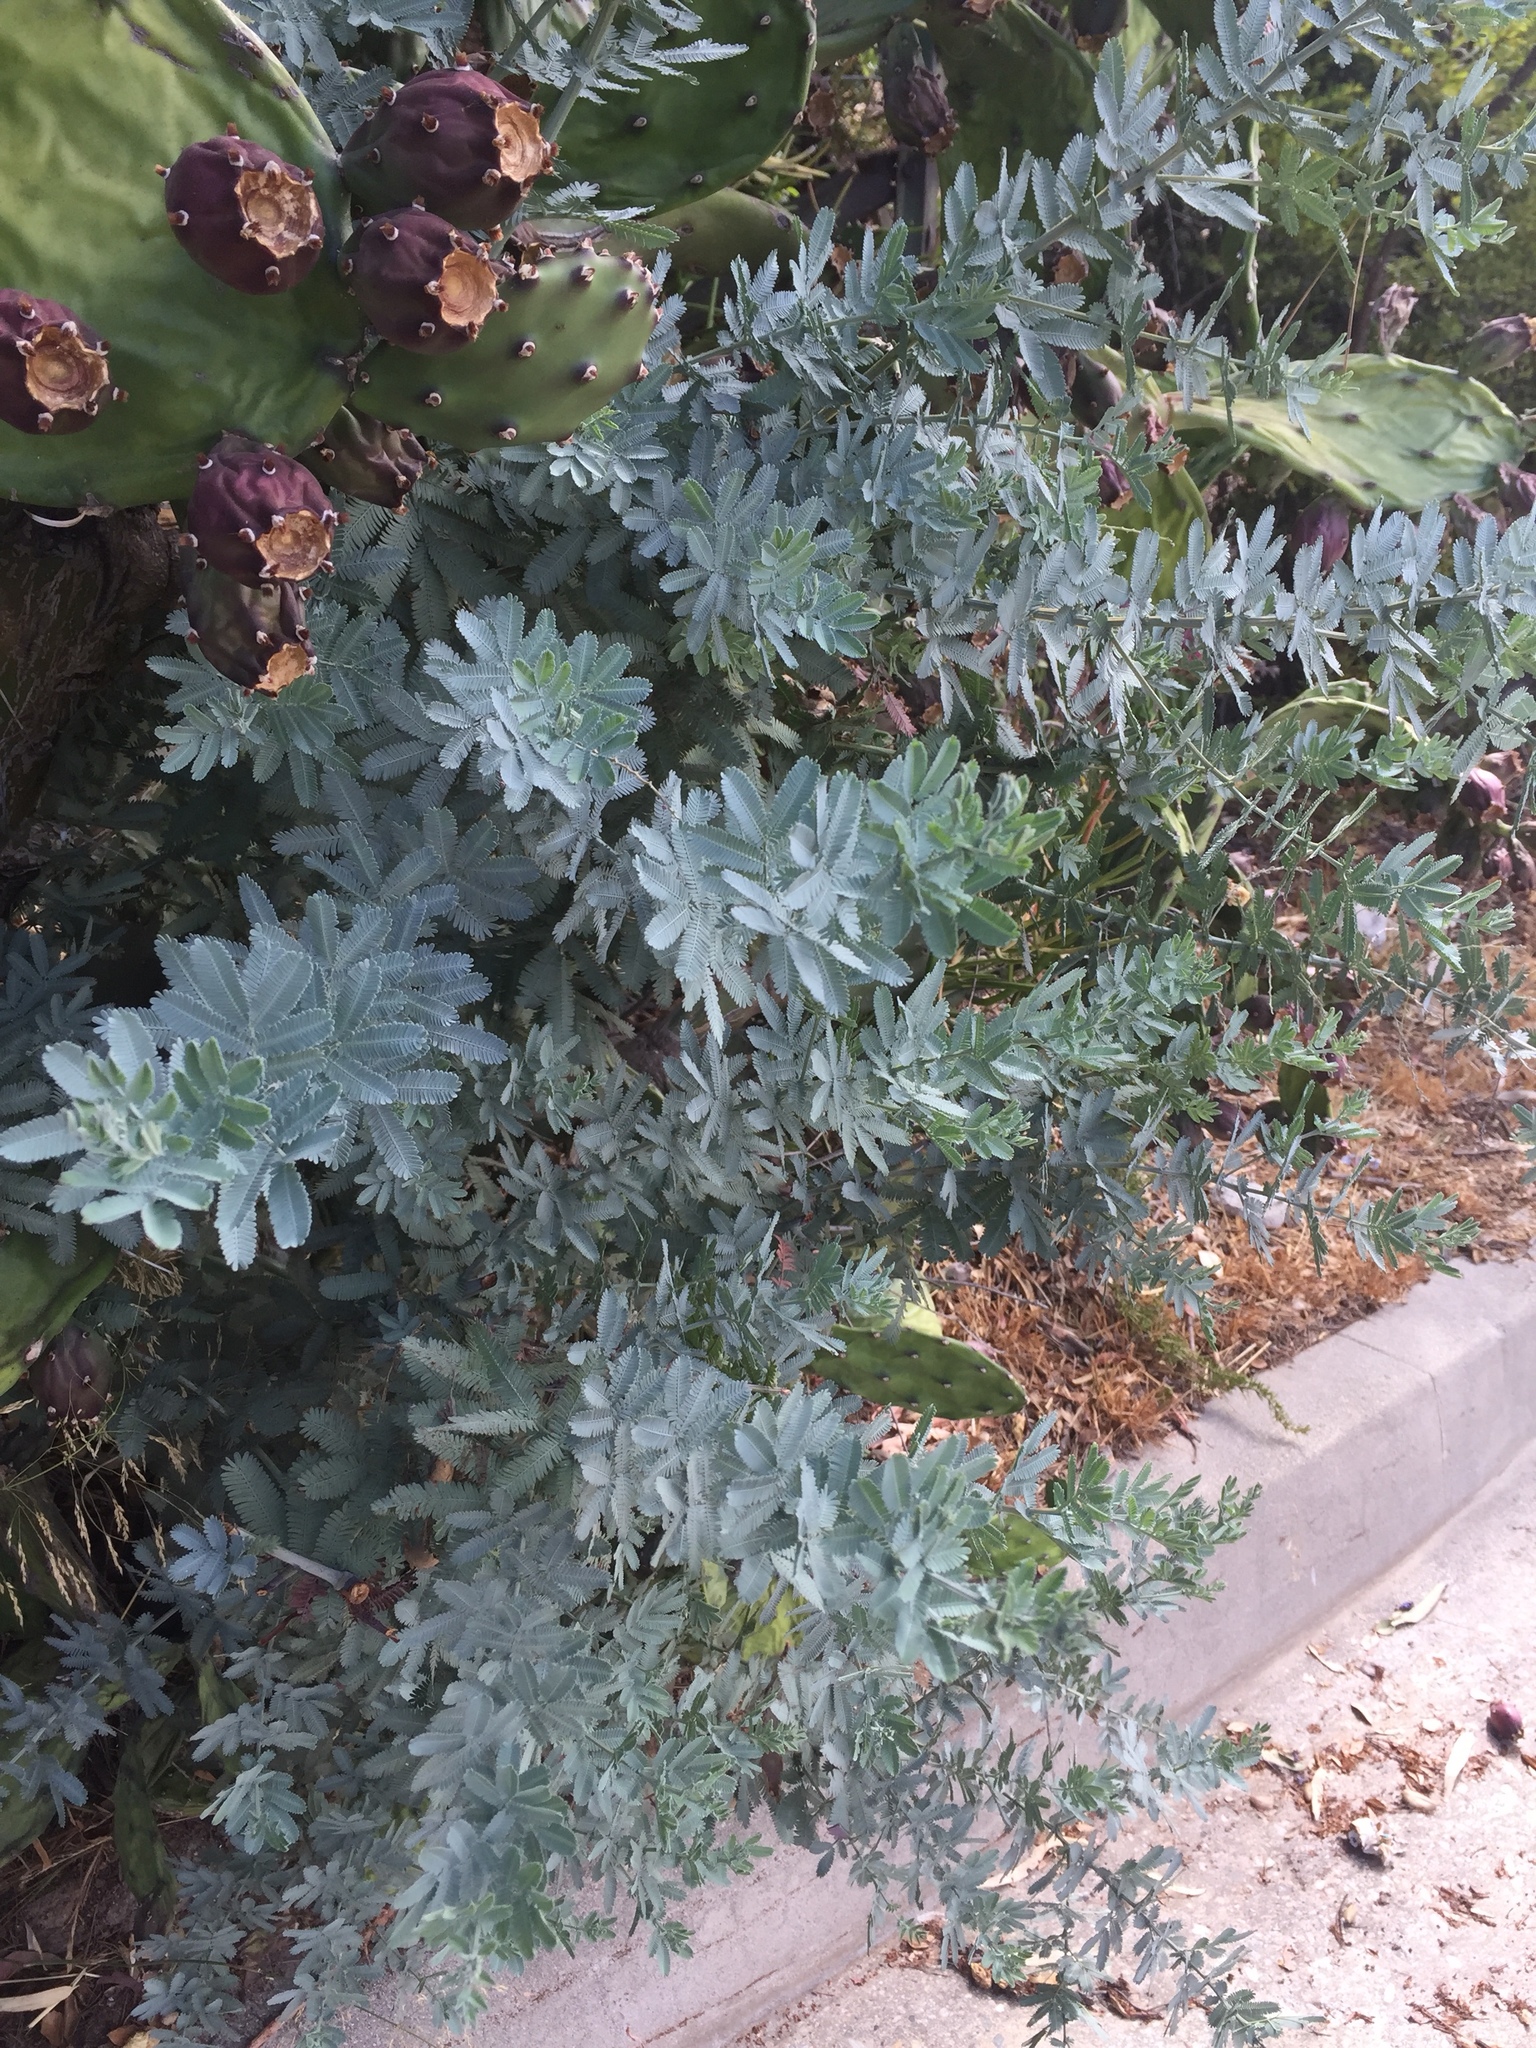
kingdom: Plantae
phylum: Tracheophyta
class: Magnoliopsida
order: Fabales
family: Fabaceae
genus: Acacia
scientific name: Acacia baileyana
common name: Cootamundra wattle
